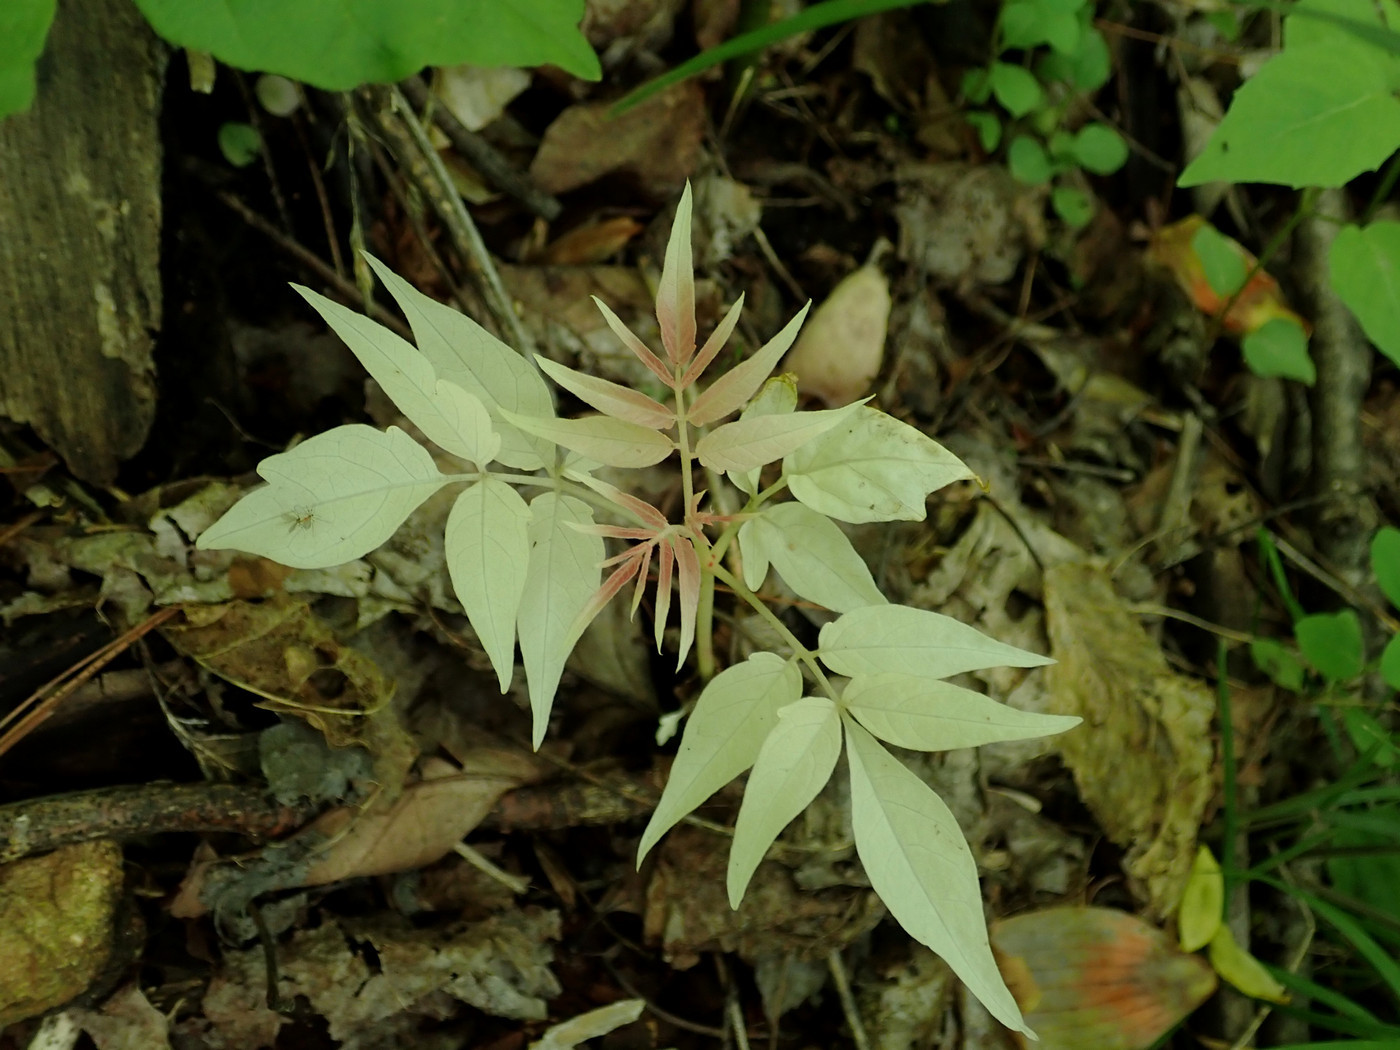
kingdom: Plantae
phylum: Tracheophyta
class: Magnoliopsida
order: Sapindales
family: Simaroubaceae
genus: Ailanthus
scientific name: Ailanthus altissima
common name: Tree-of-heaven
